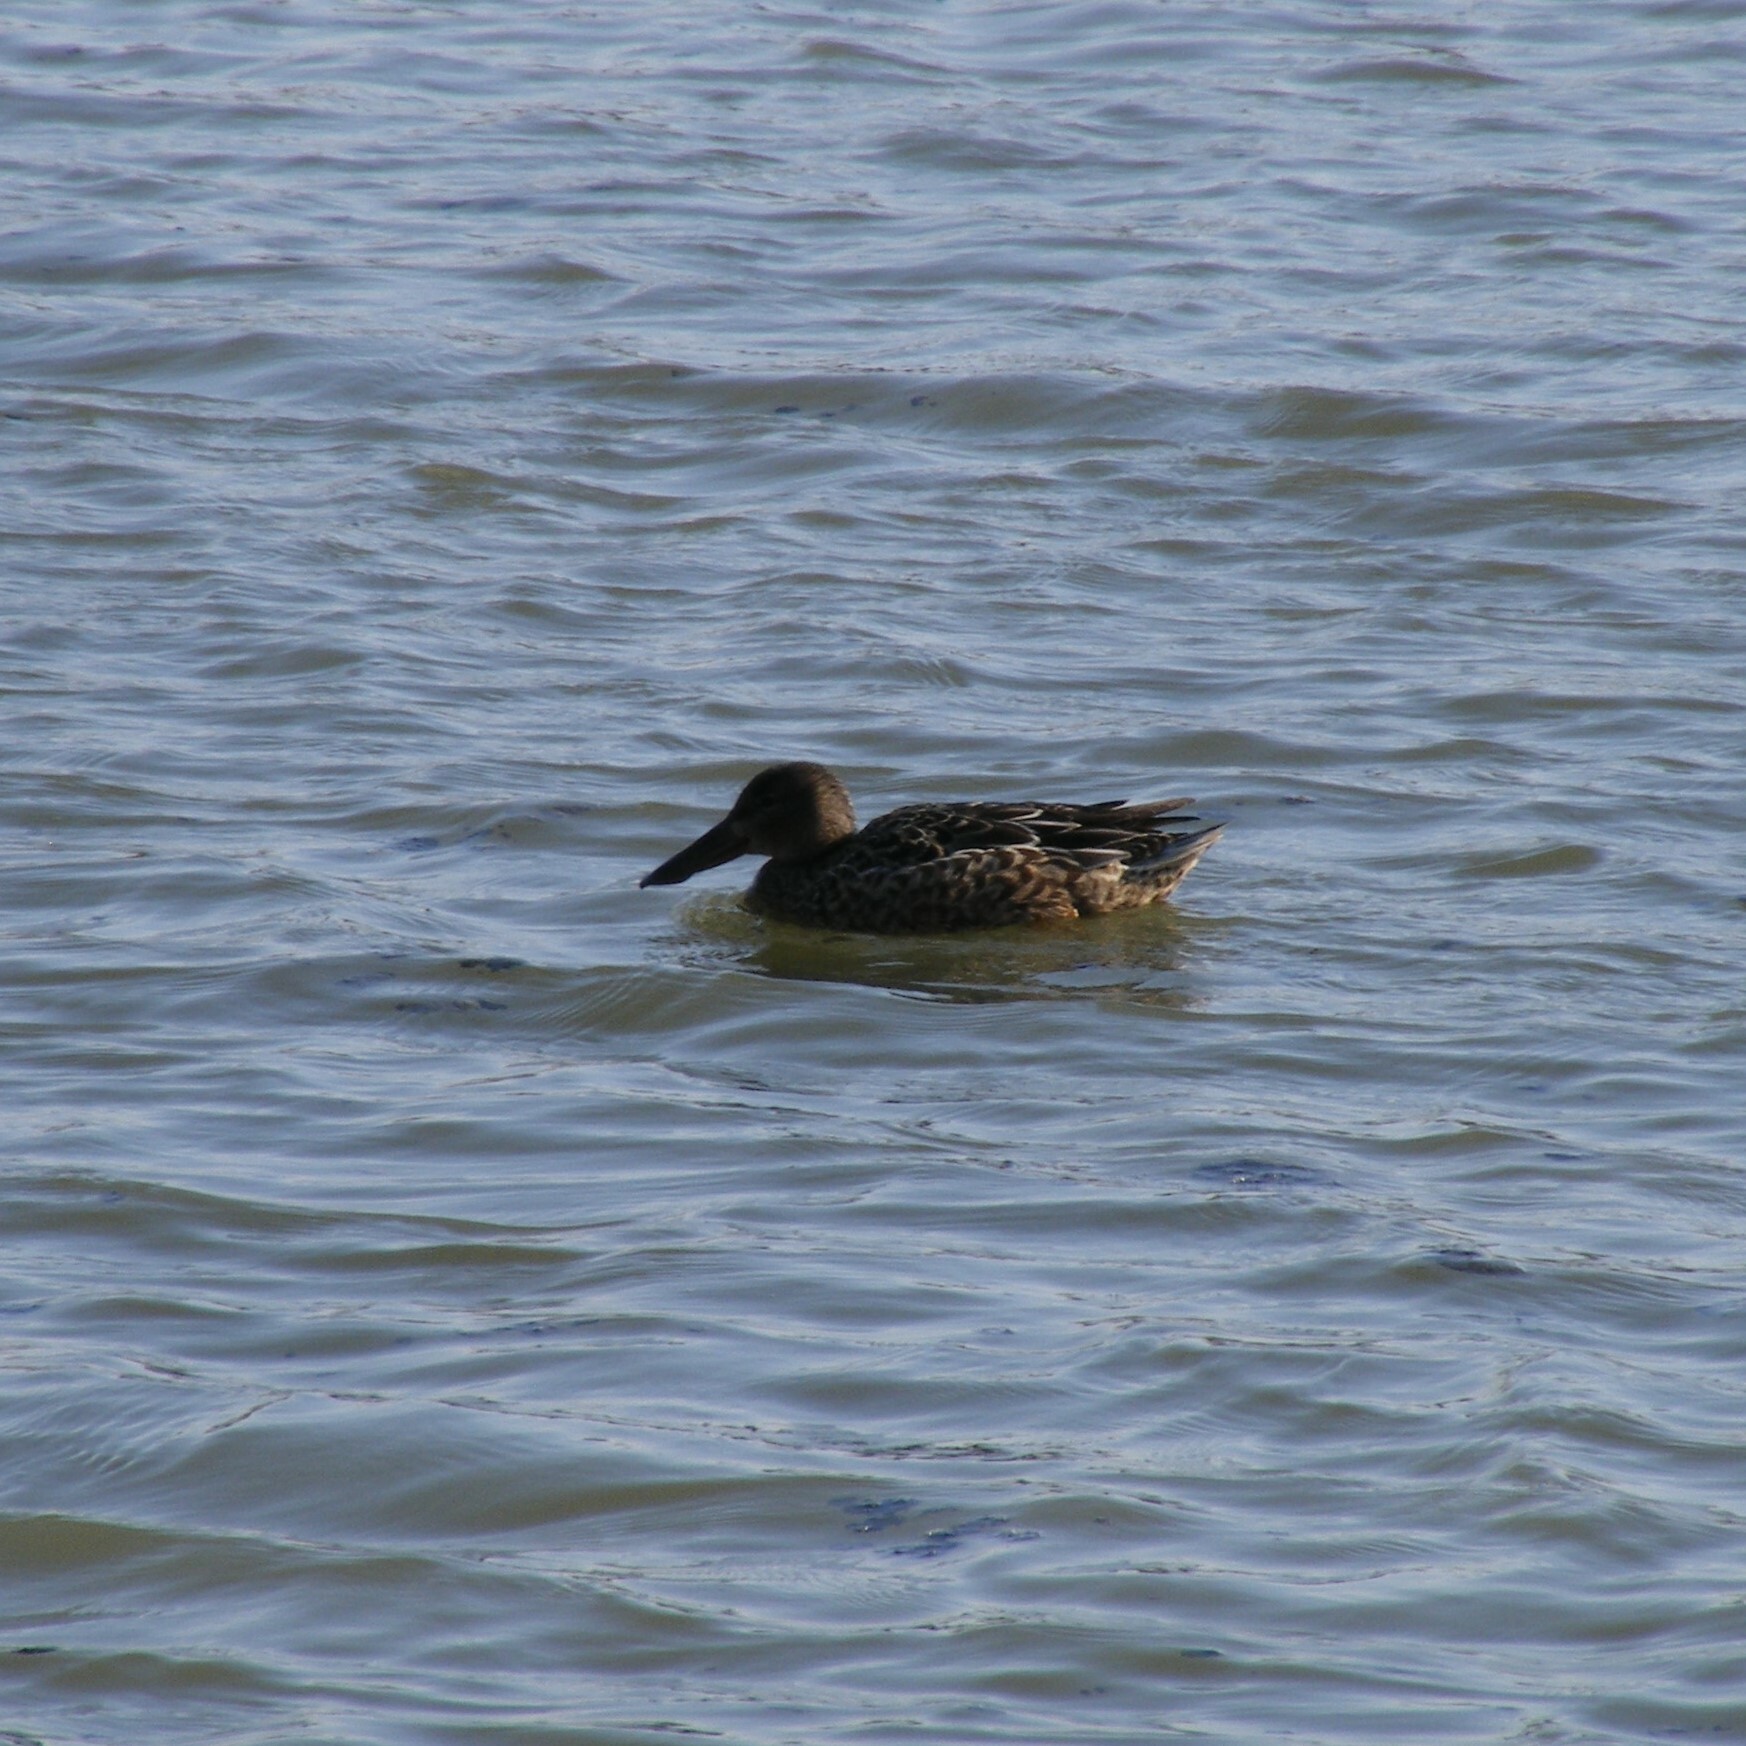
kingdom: Animalia
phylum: Chordata
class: Aves
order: Anseriformes
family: Anatidae
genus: Spatula
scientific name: Spatula clypeata
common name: Northern shoveler
